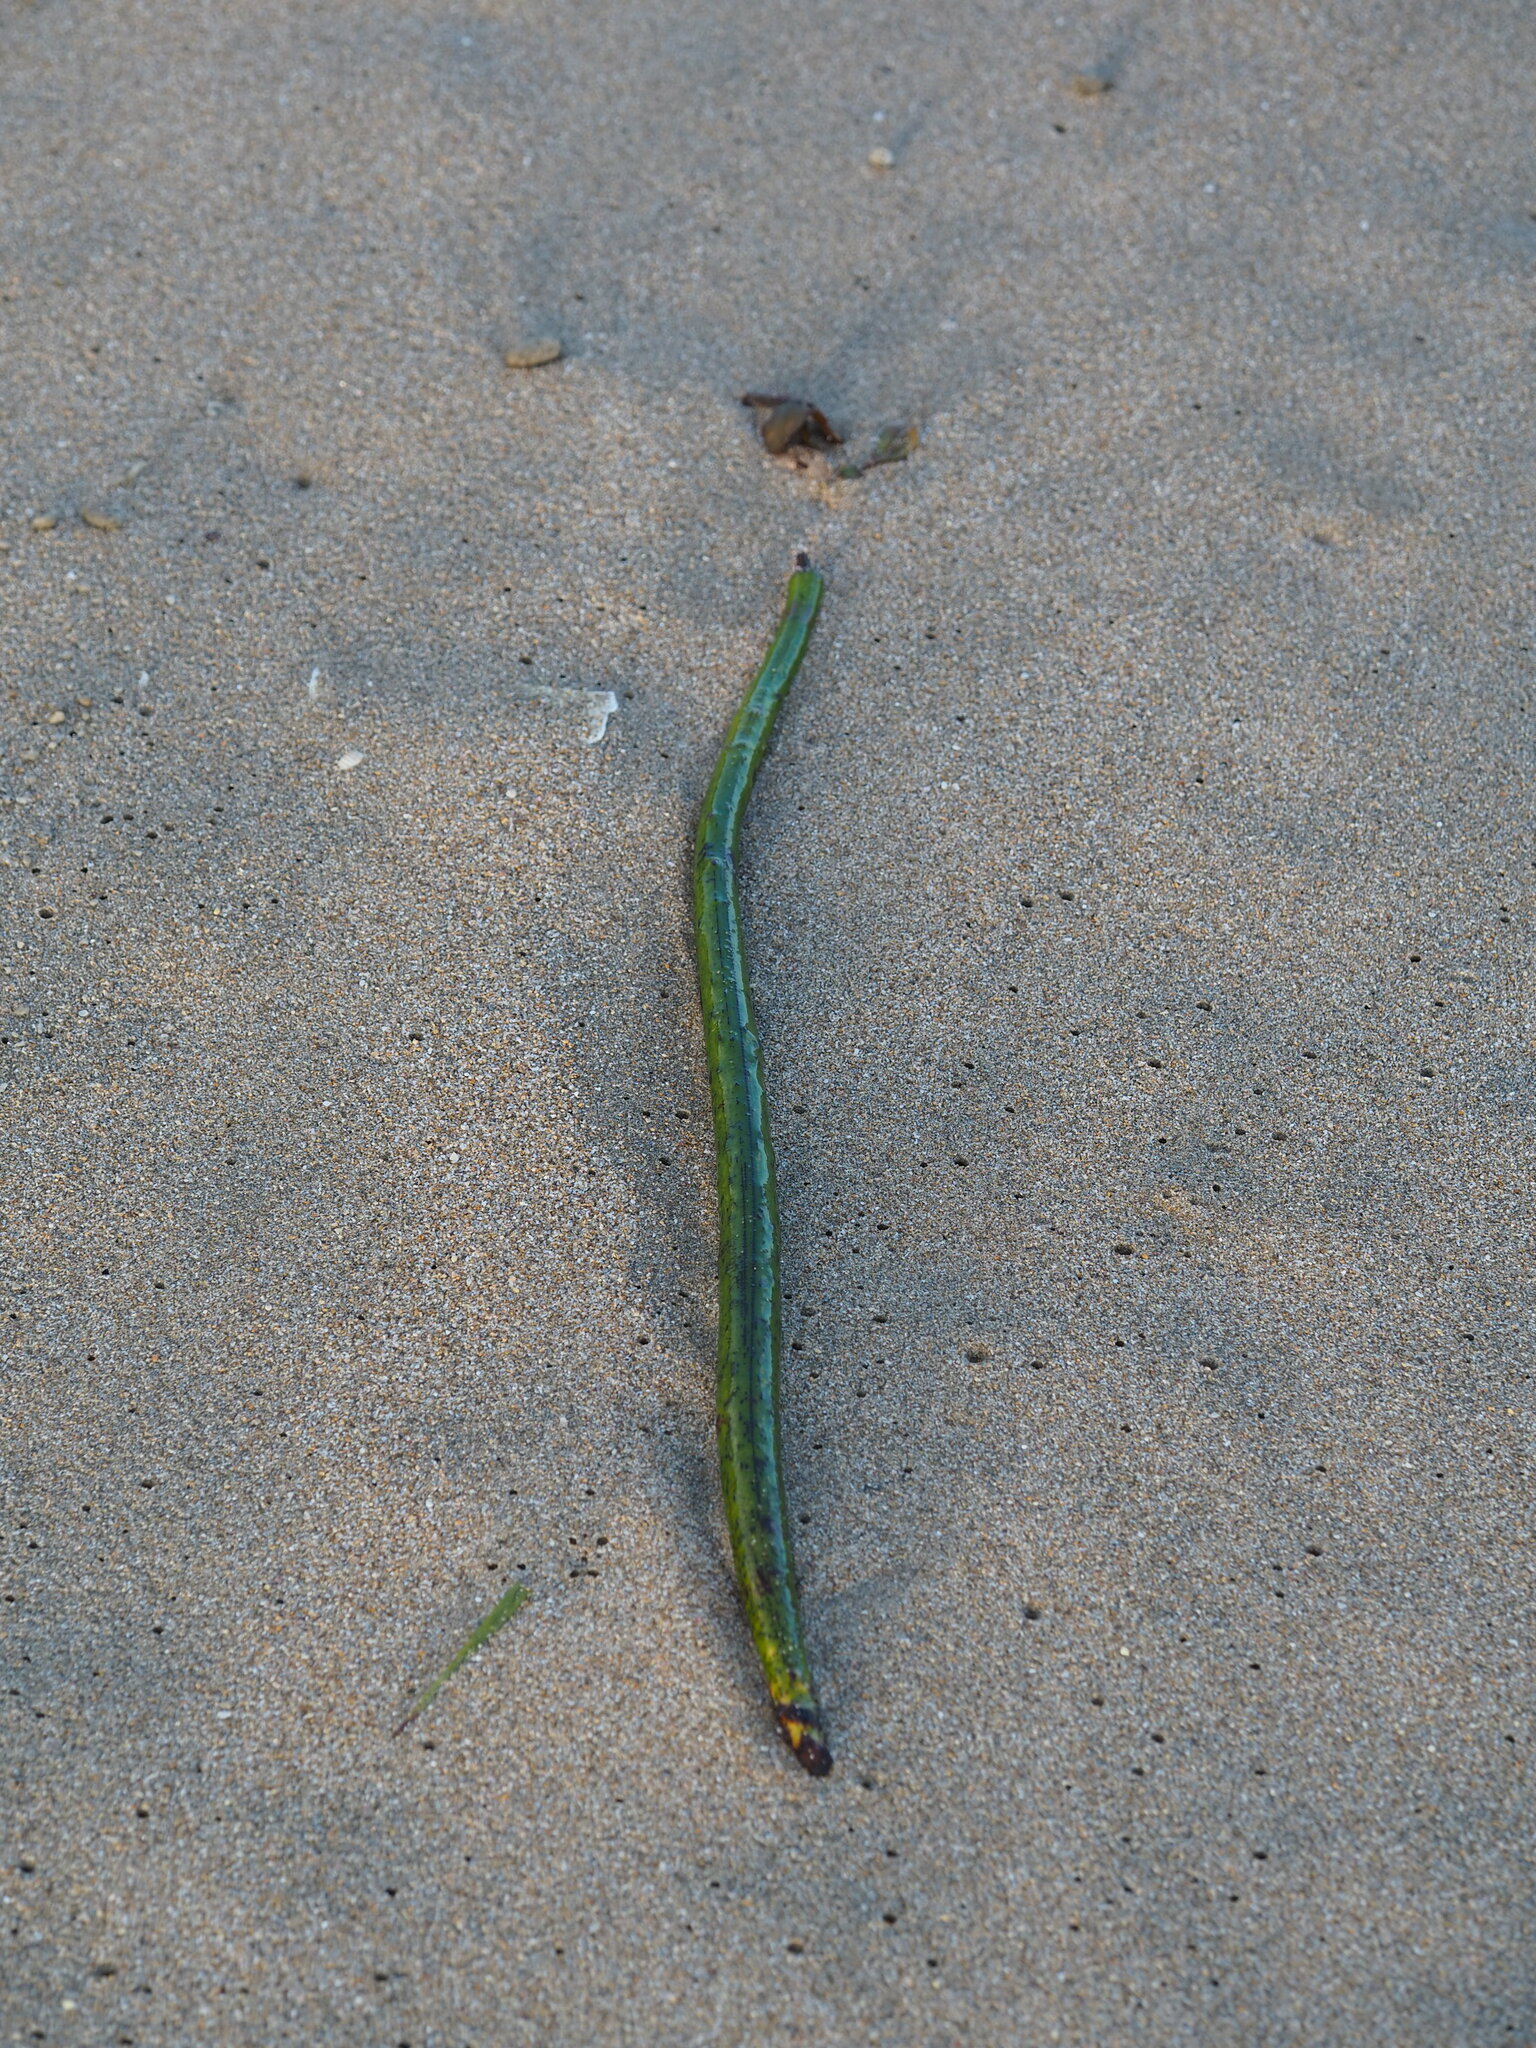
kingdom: Plantae
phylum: Tracheophyta
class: Magnoliopsida
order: Malpighiales
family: Rhizophoraceae
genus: Rhizophora
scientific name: Rhizophora stylosa
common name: Red mangrove
